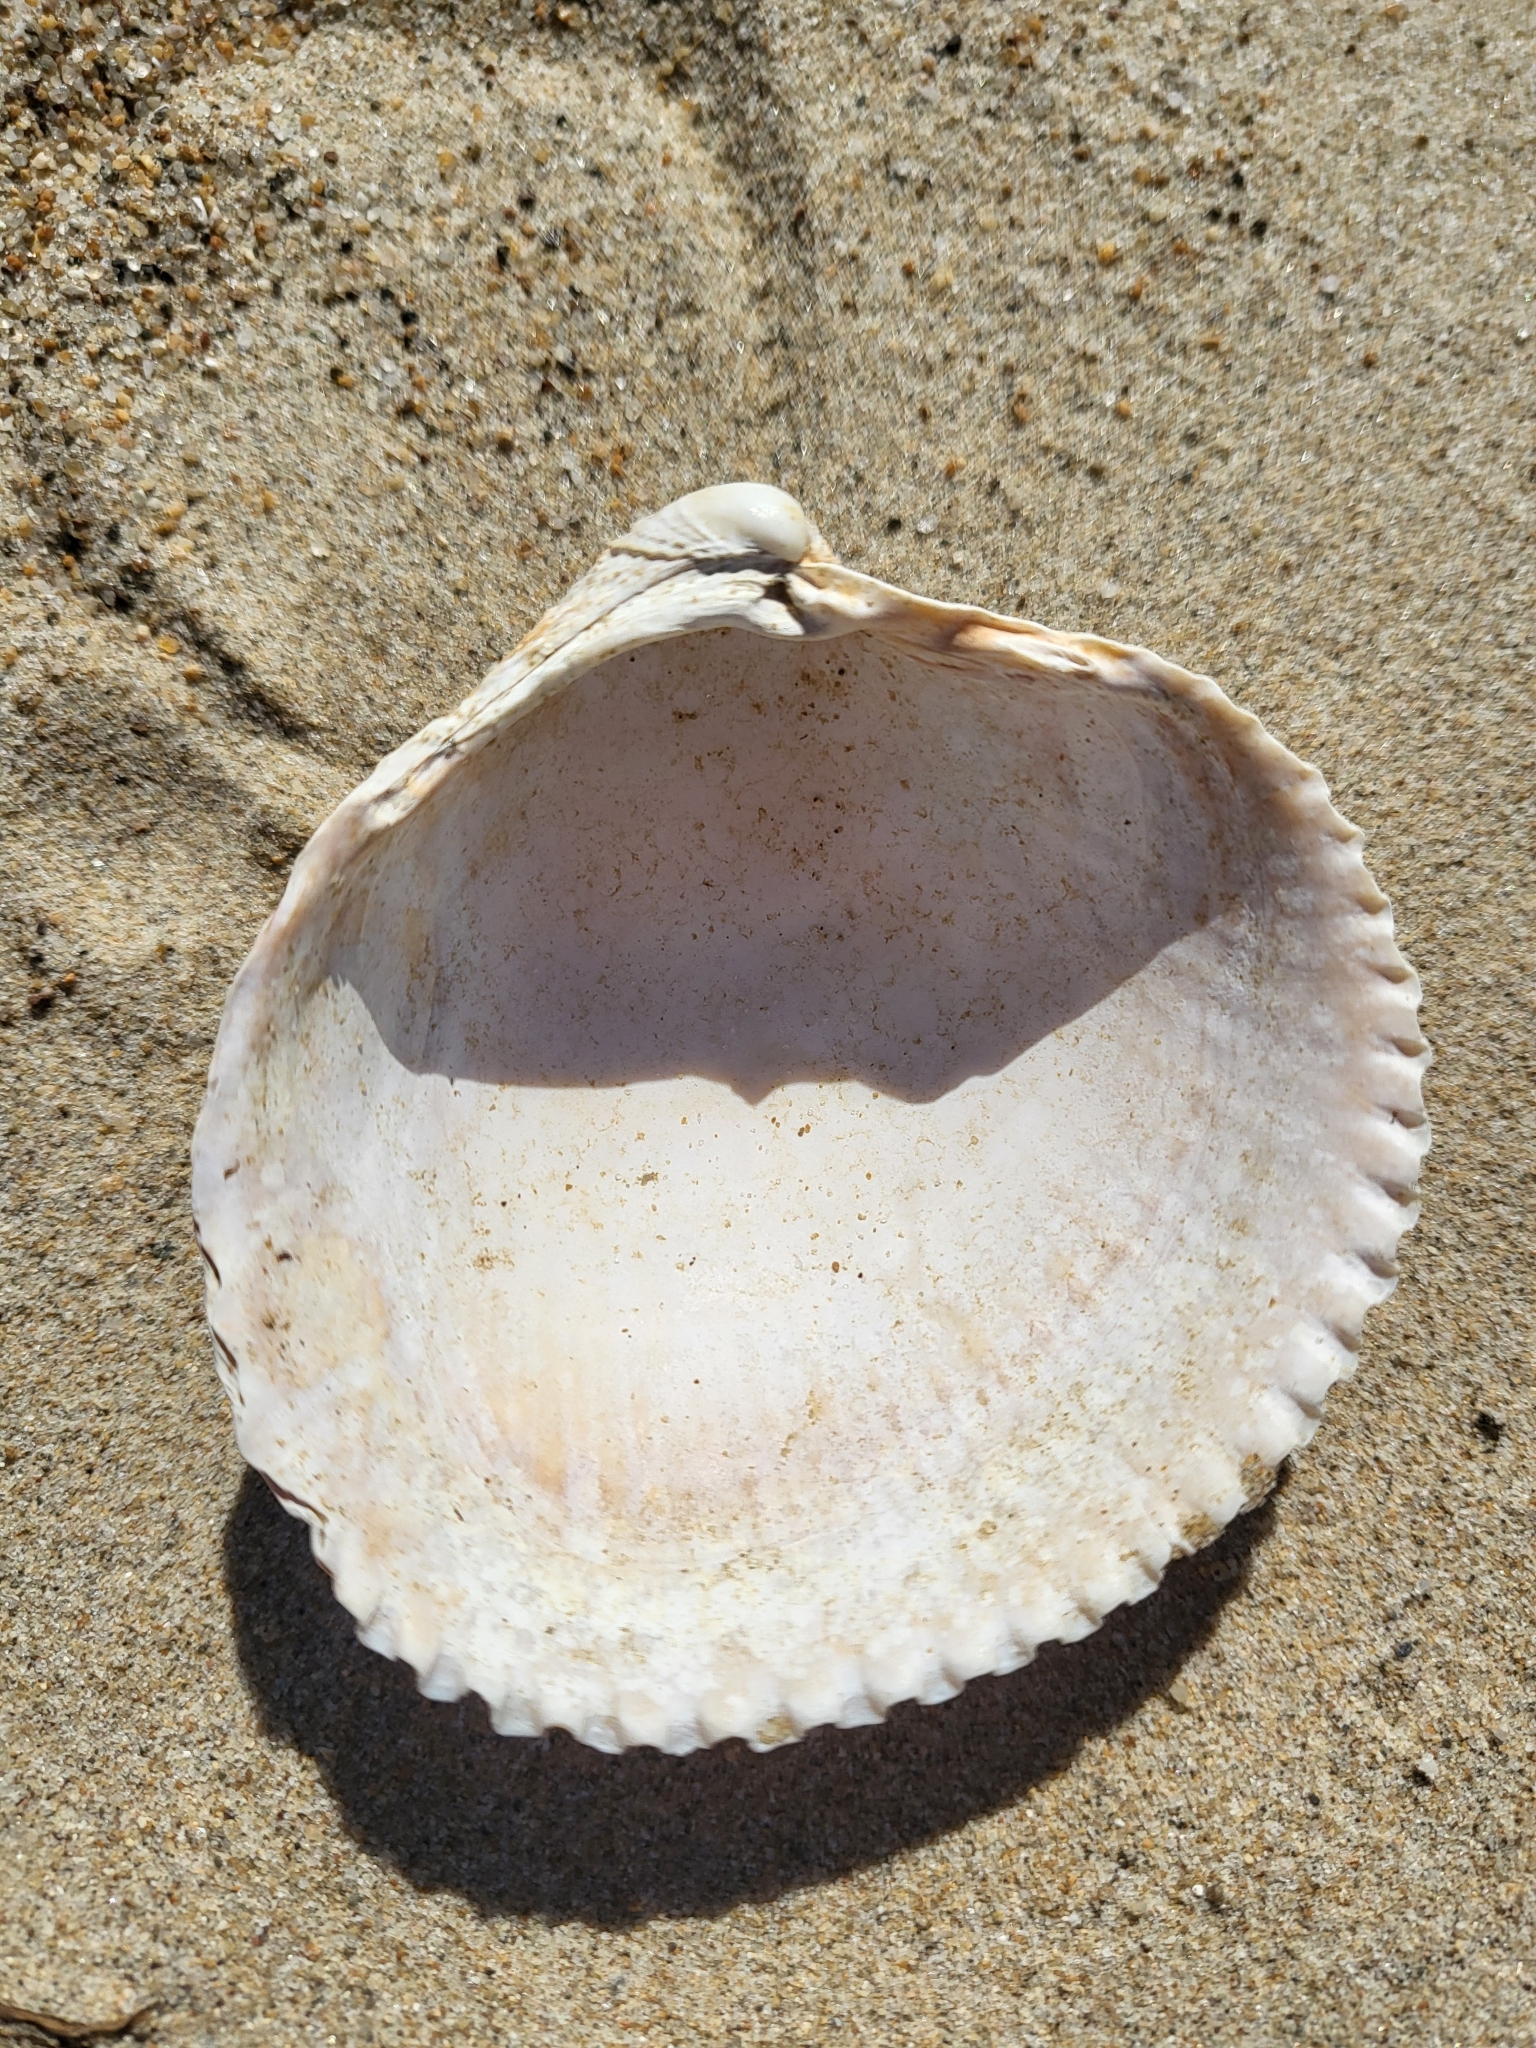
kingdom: Animalia
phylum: Mollusca
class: Bivalvia
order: Cardiida
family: Cardiidae
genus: Clinocardium
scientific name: Clinocardium nuttallii
